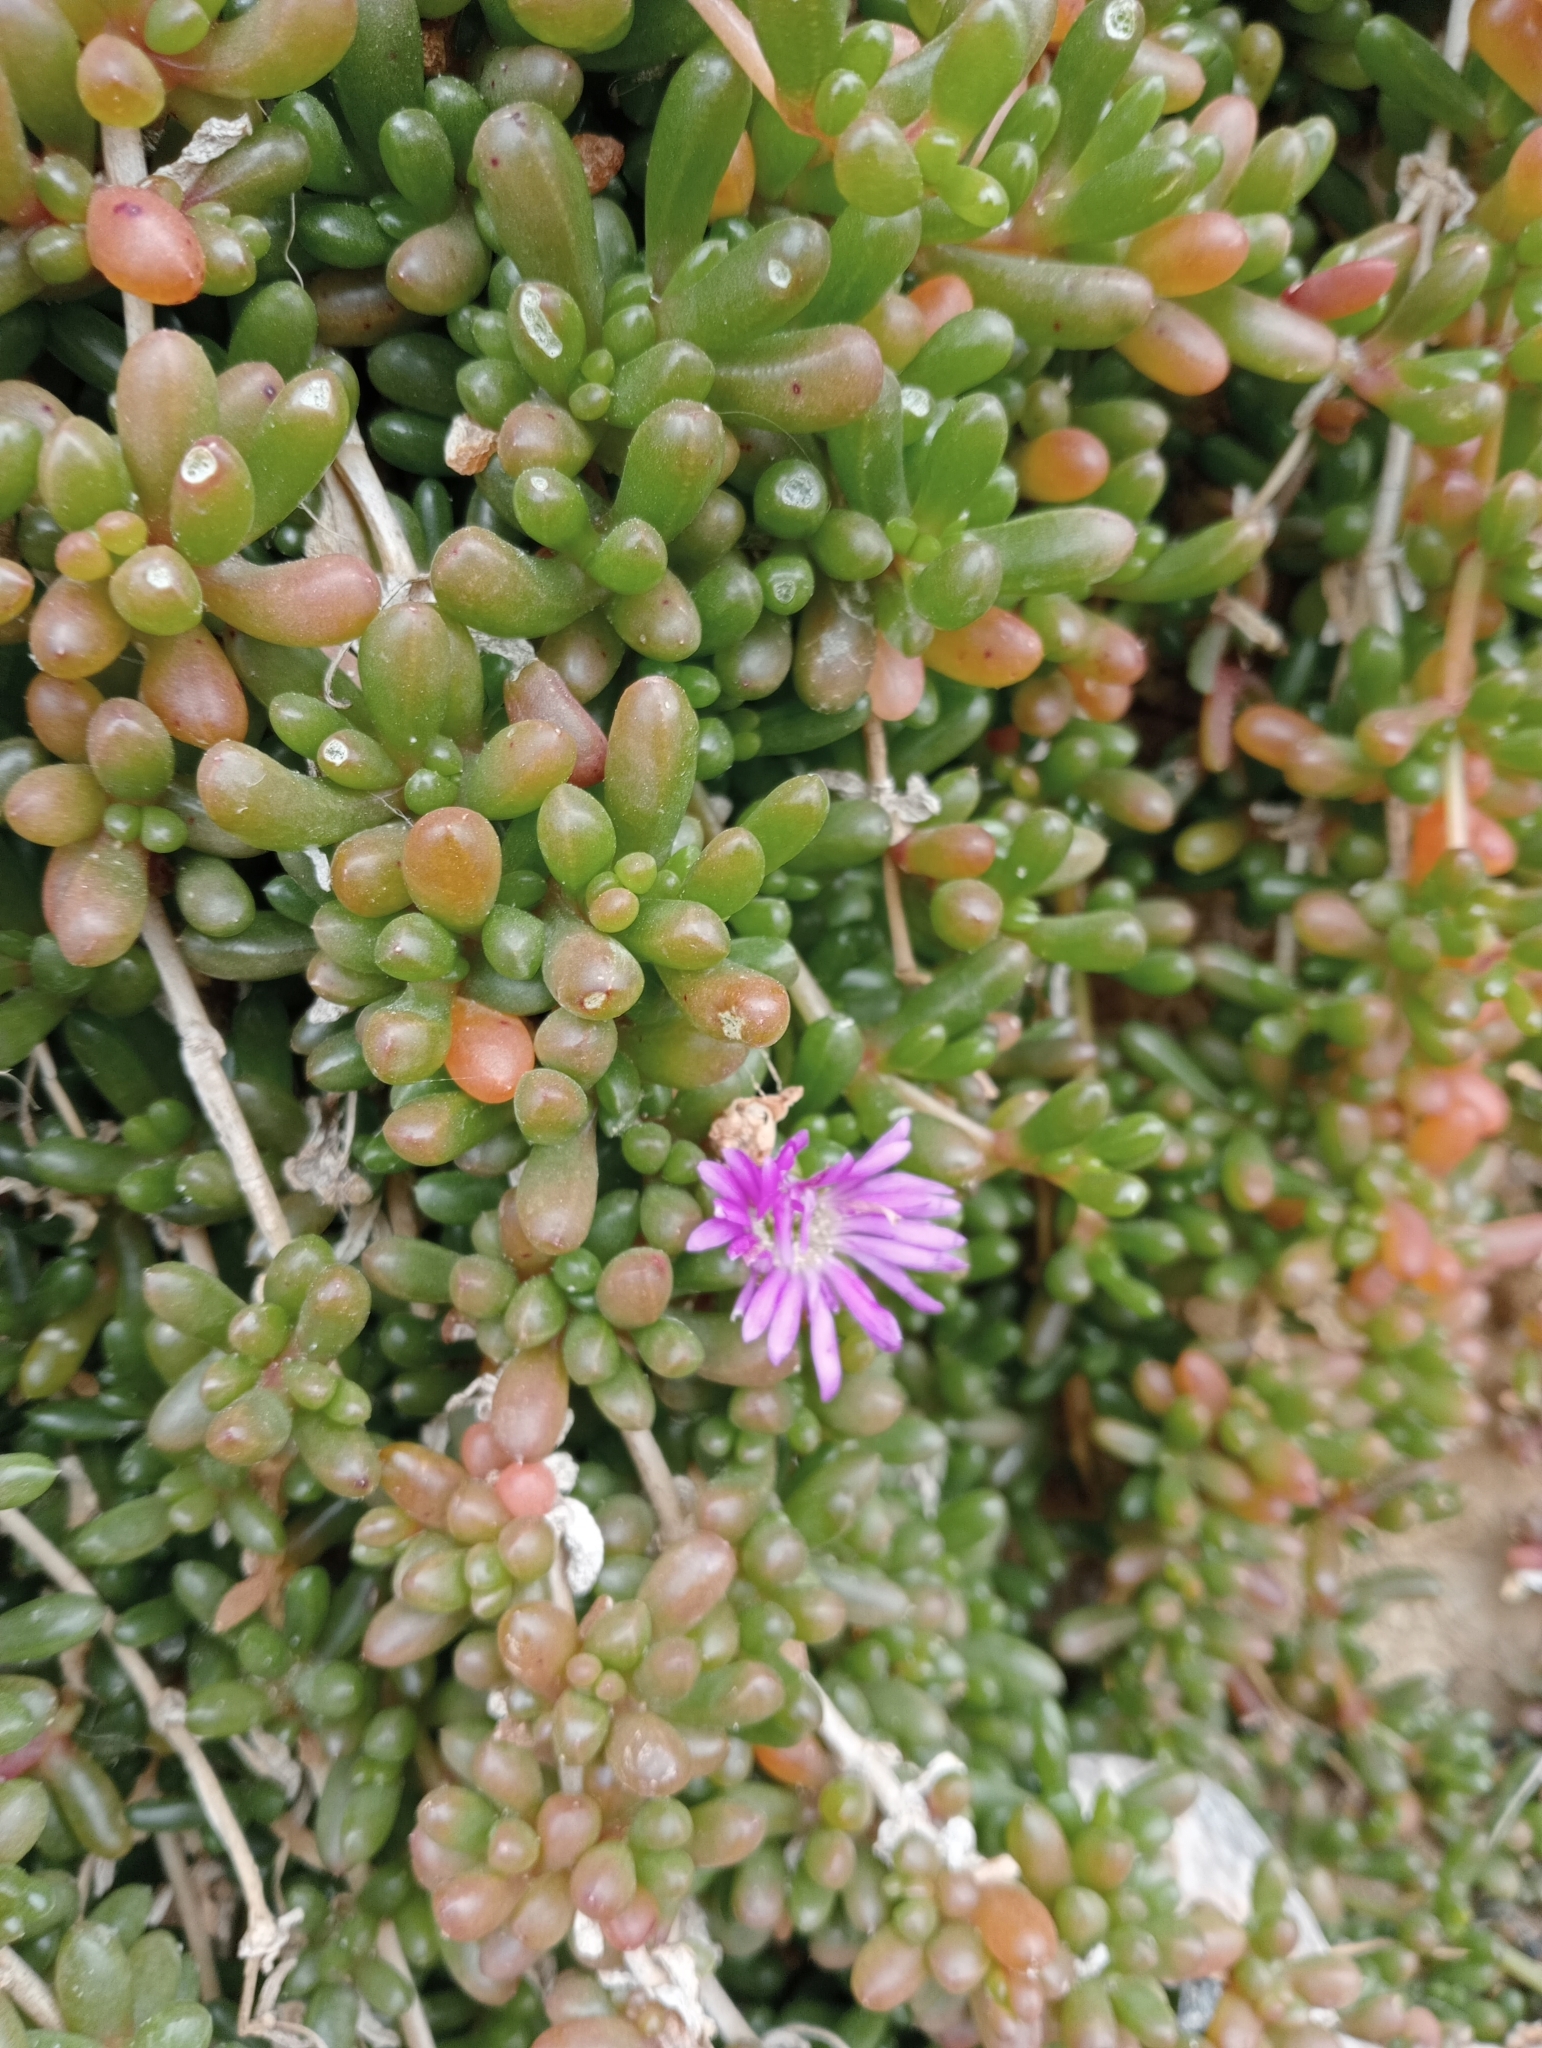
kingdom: Plantae
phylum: Tracheophyta
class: Magnoliopsida
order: Caryophyllales
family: Aizoaceae
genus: Disphyma
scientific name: Disphyma clavellatum
